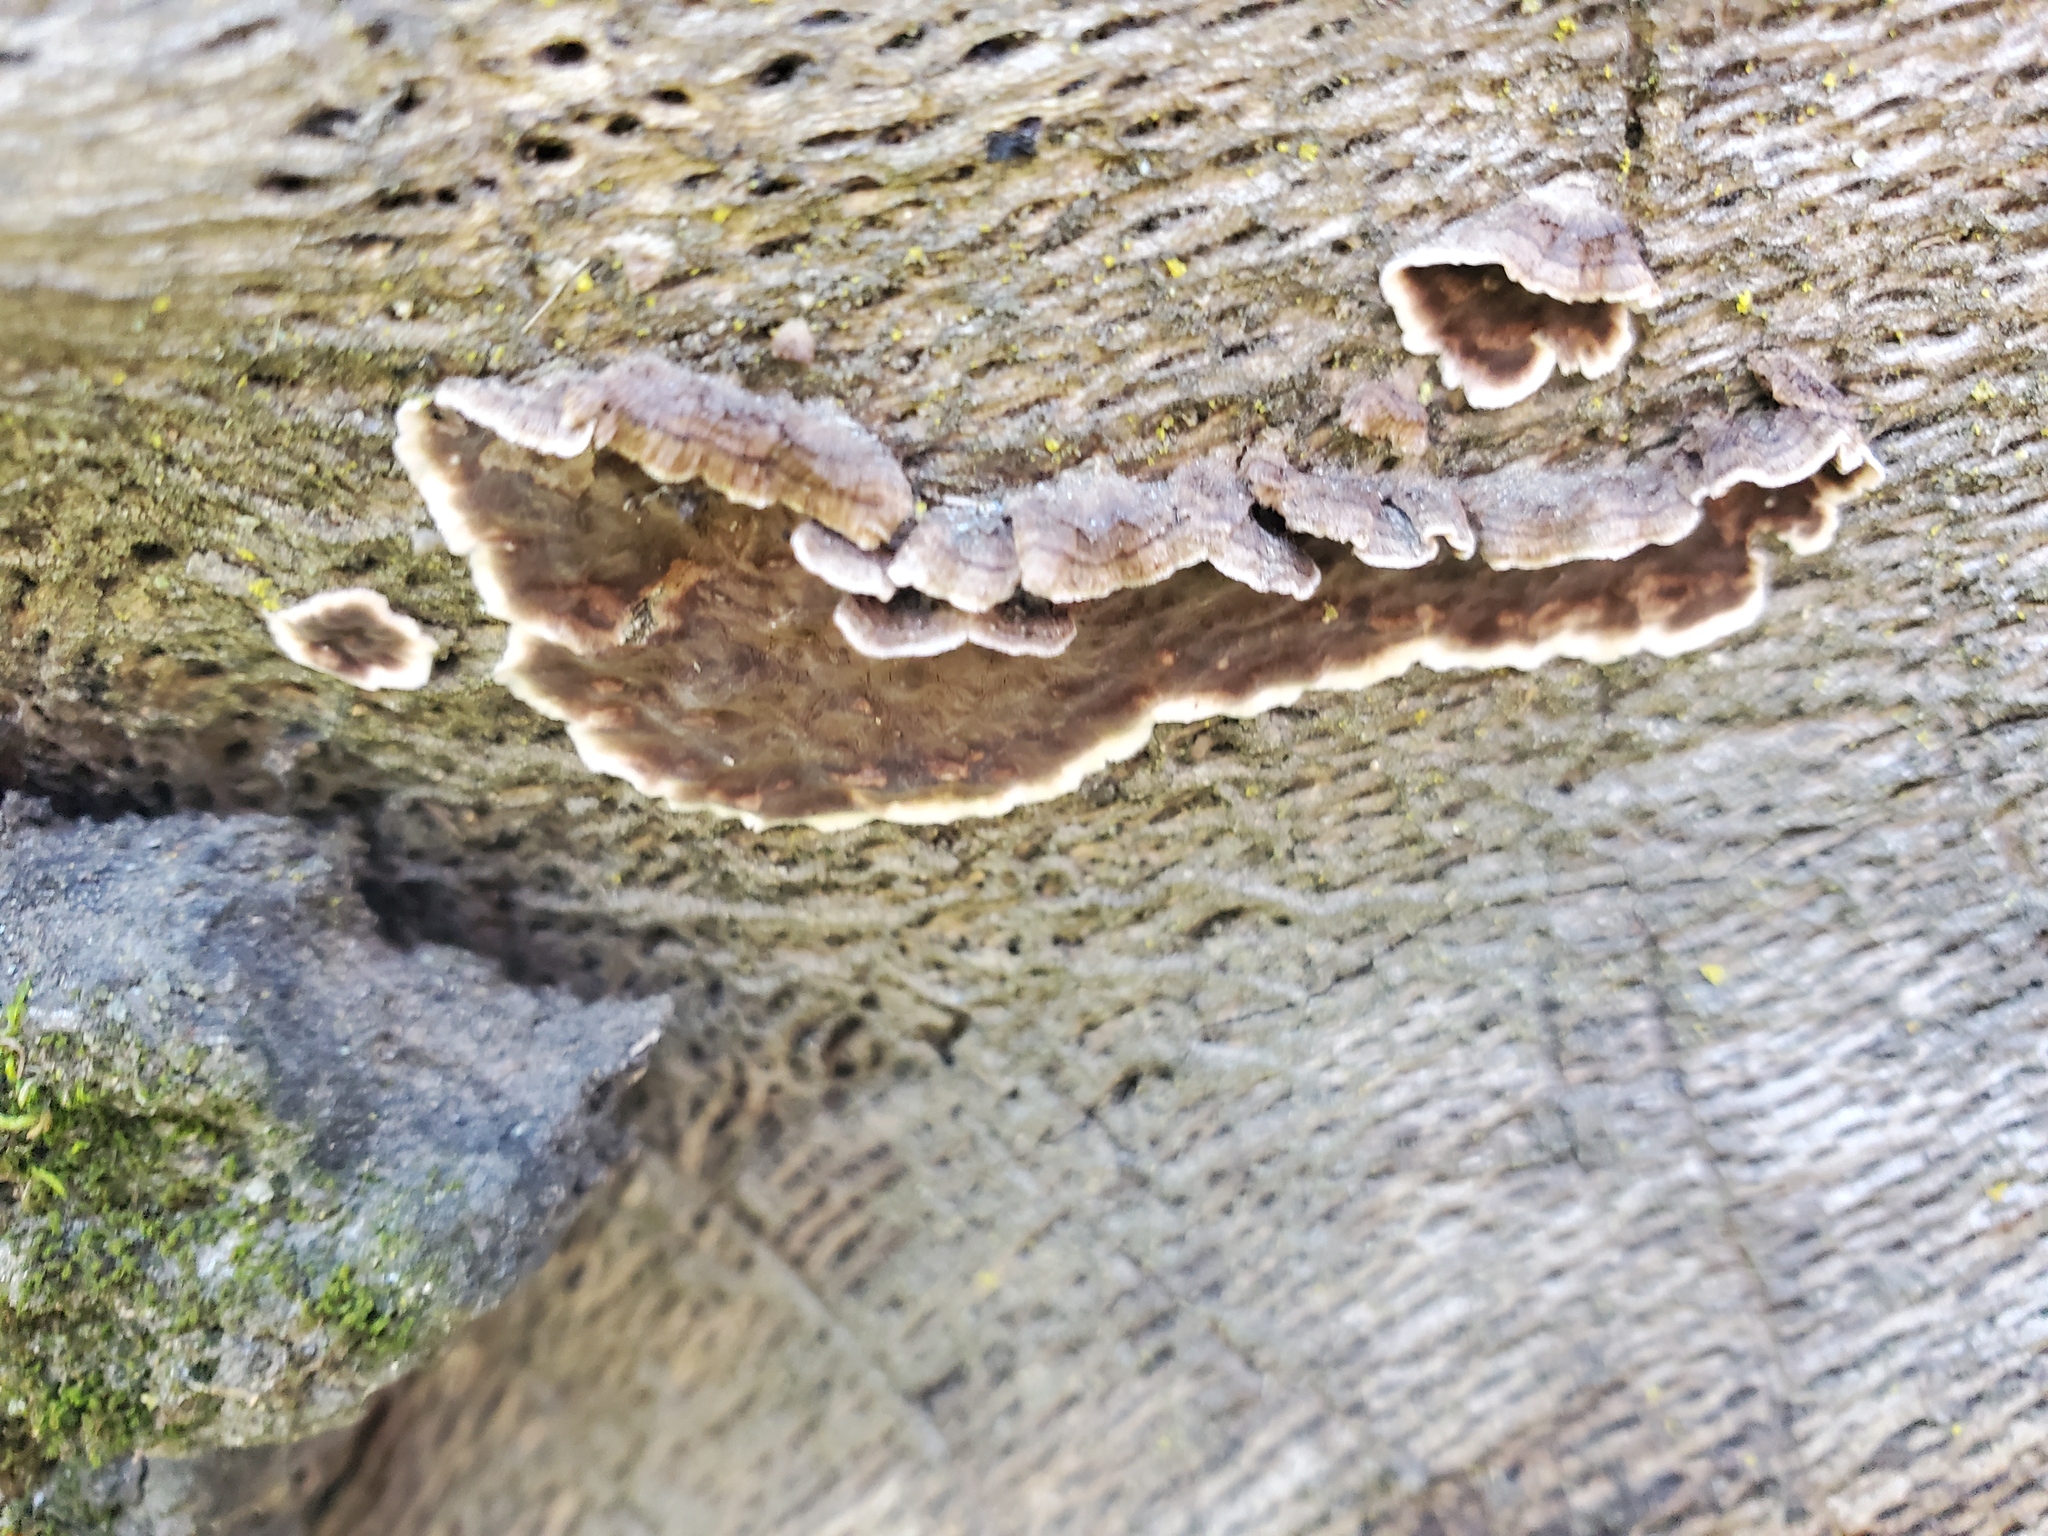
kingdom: Fungi
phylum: Basidiomycota
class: Agaricomycetes
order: Russulales
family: Peniophoraceae
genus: Peniophora
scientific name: Peniophora albobadia
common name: Giraffe spots
